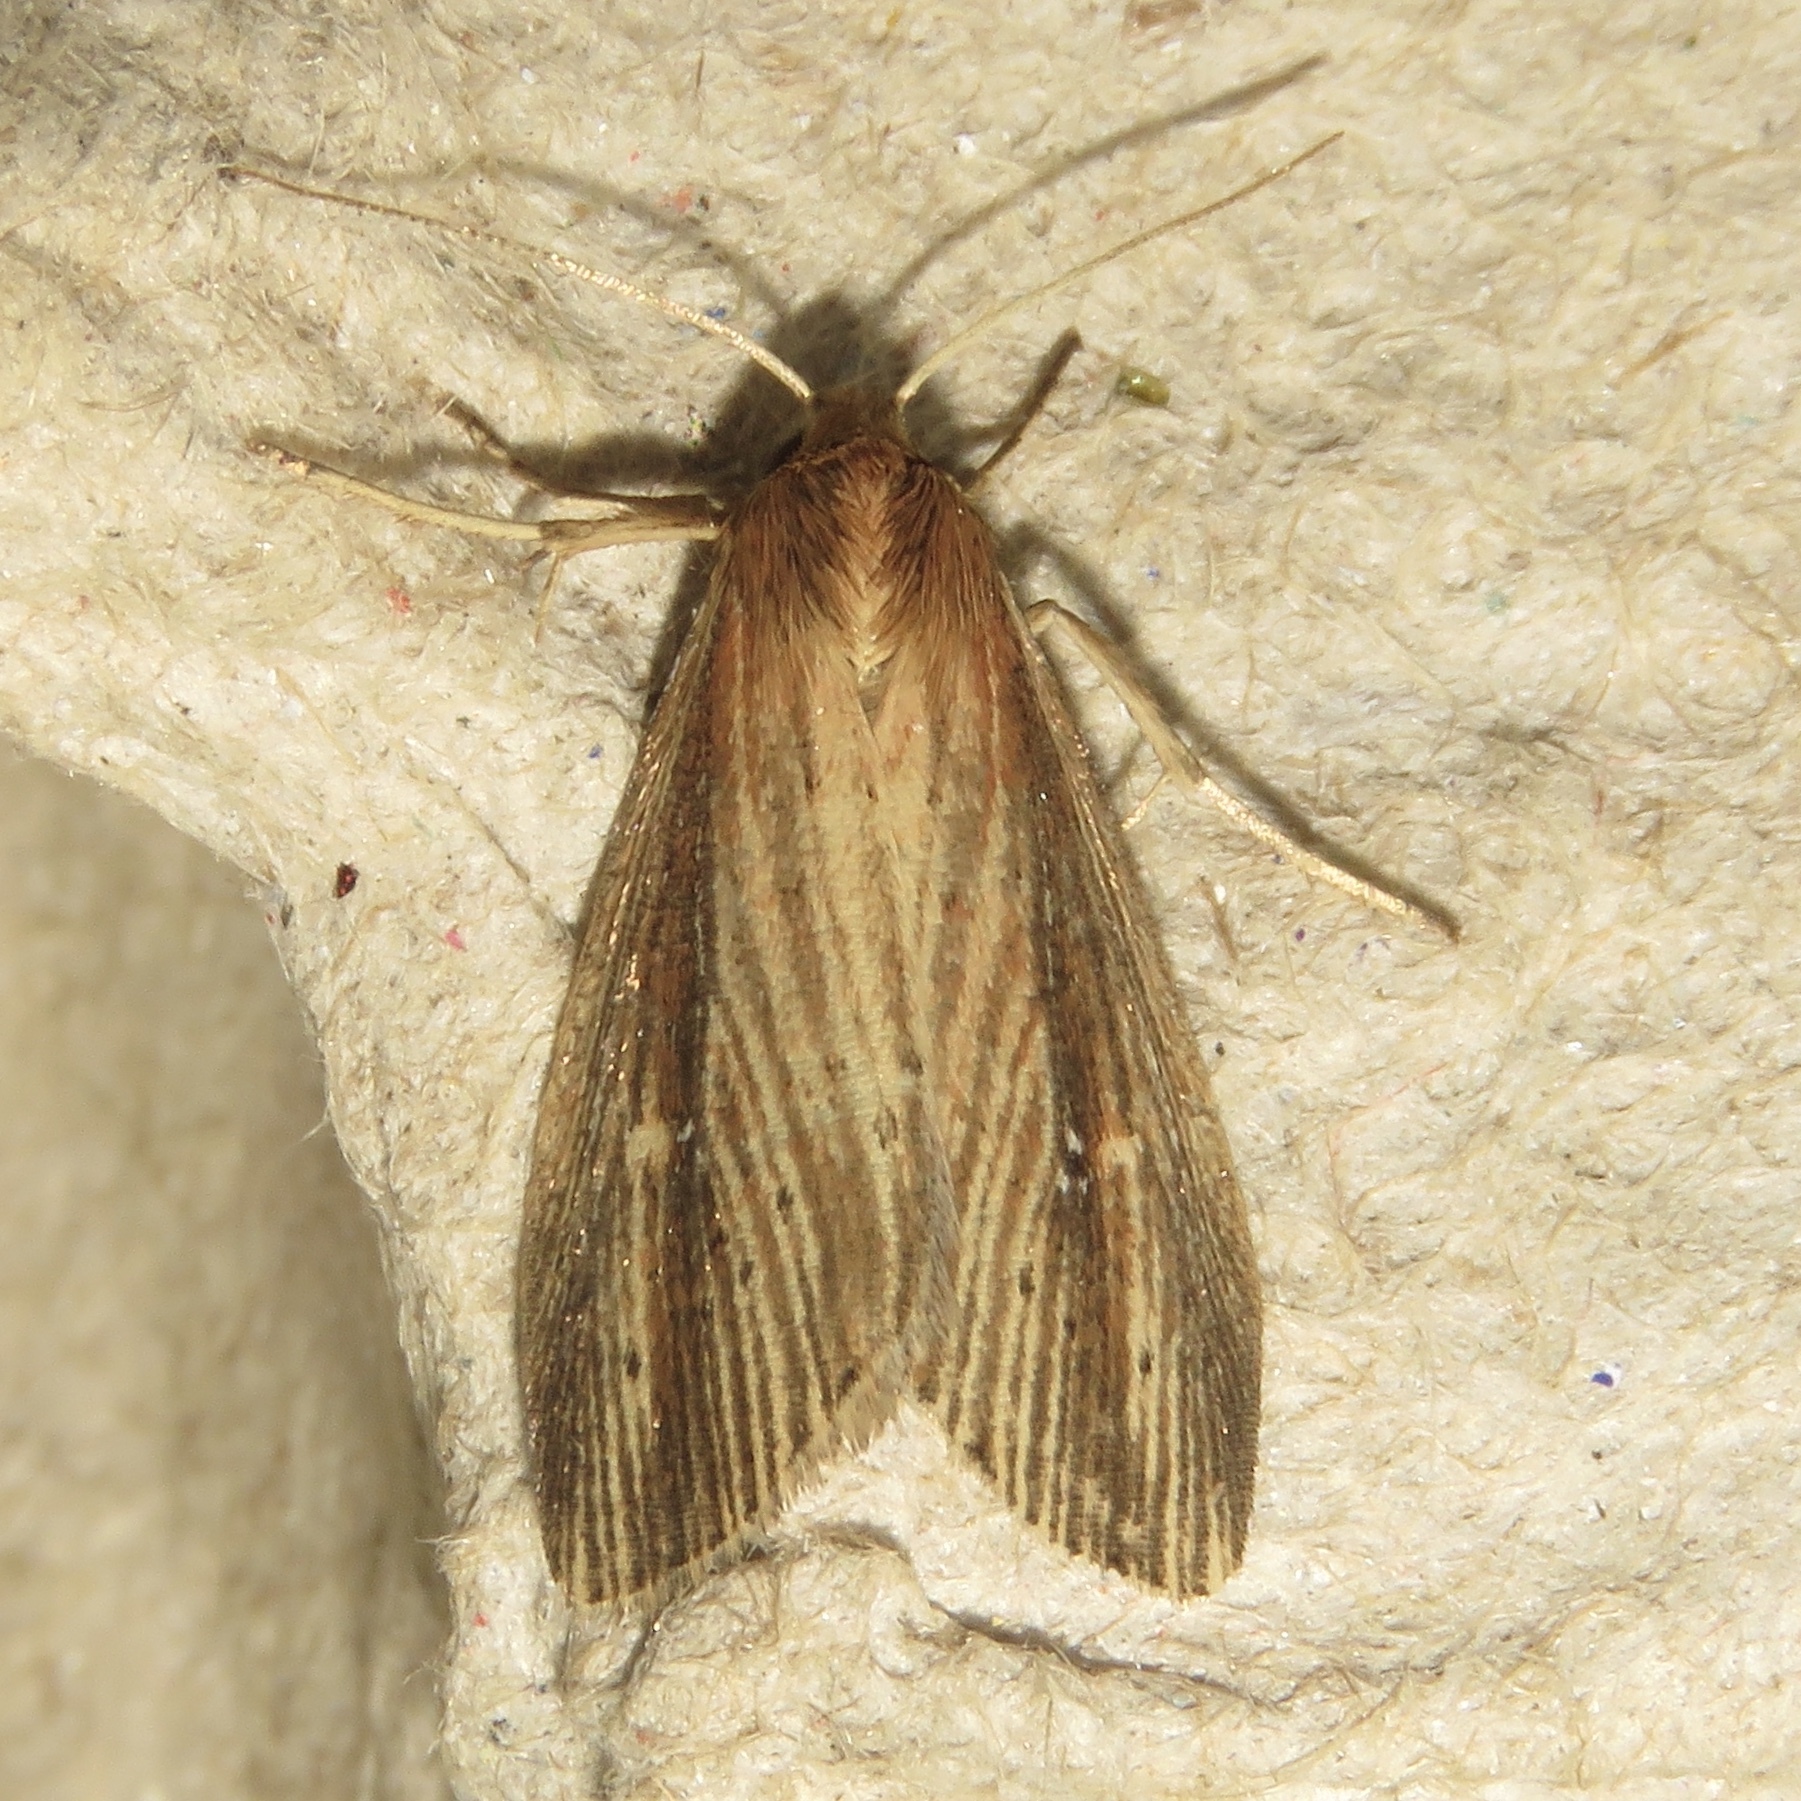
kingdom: Animalia
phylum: Arthropoda
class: Insecta
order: Lepidoptera
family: Noctuidae
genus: Photedes
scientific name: Photedes defecta
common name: Narrow-winged borer moth
